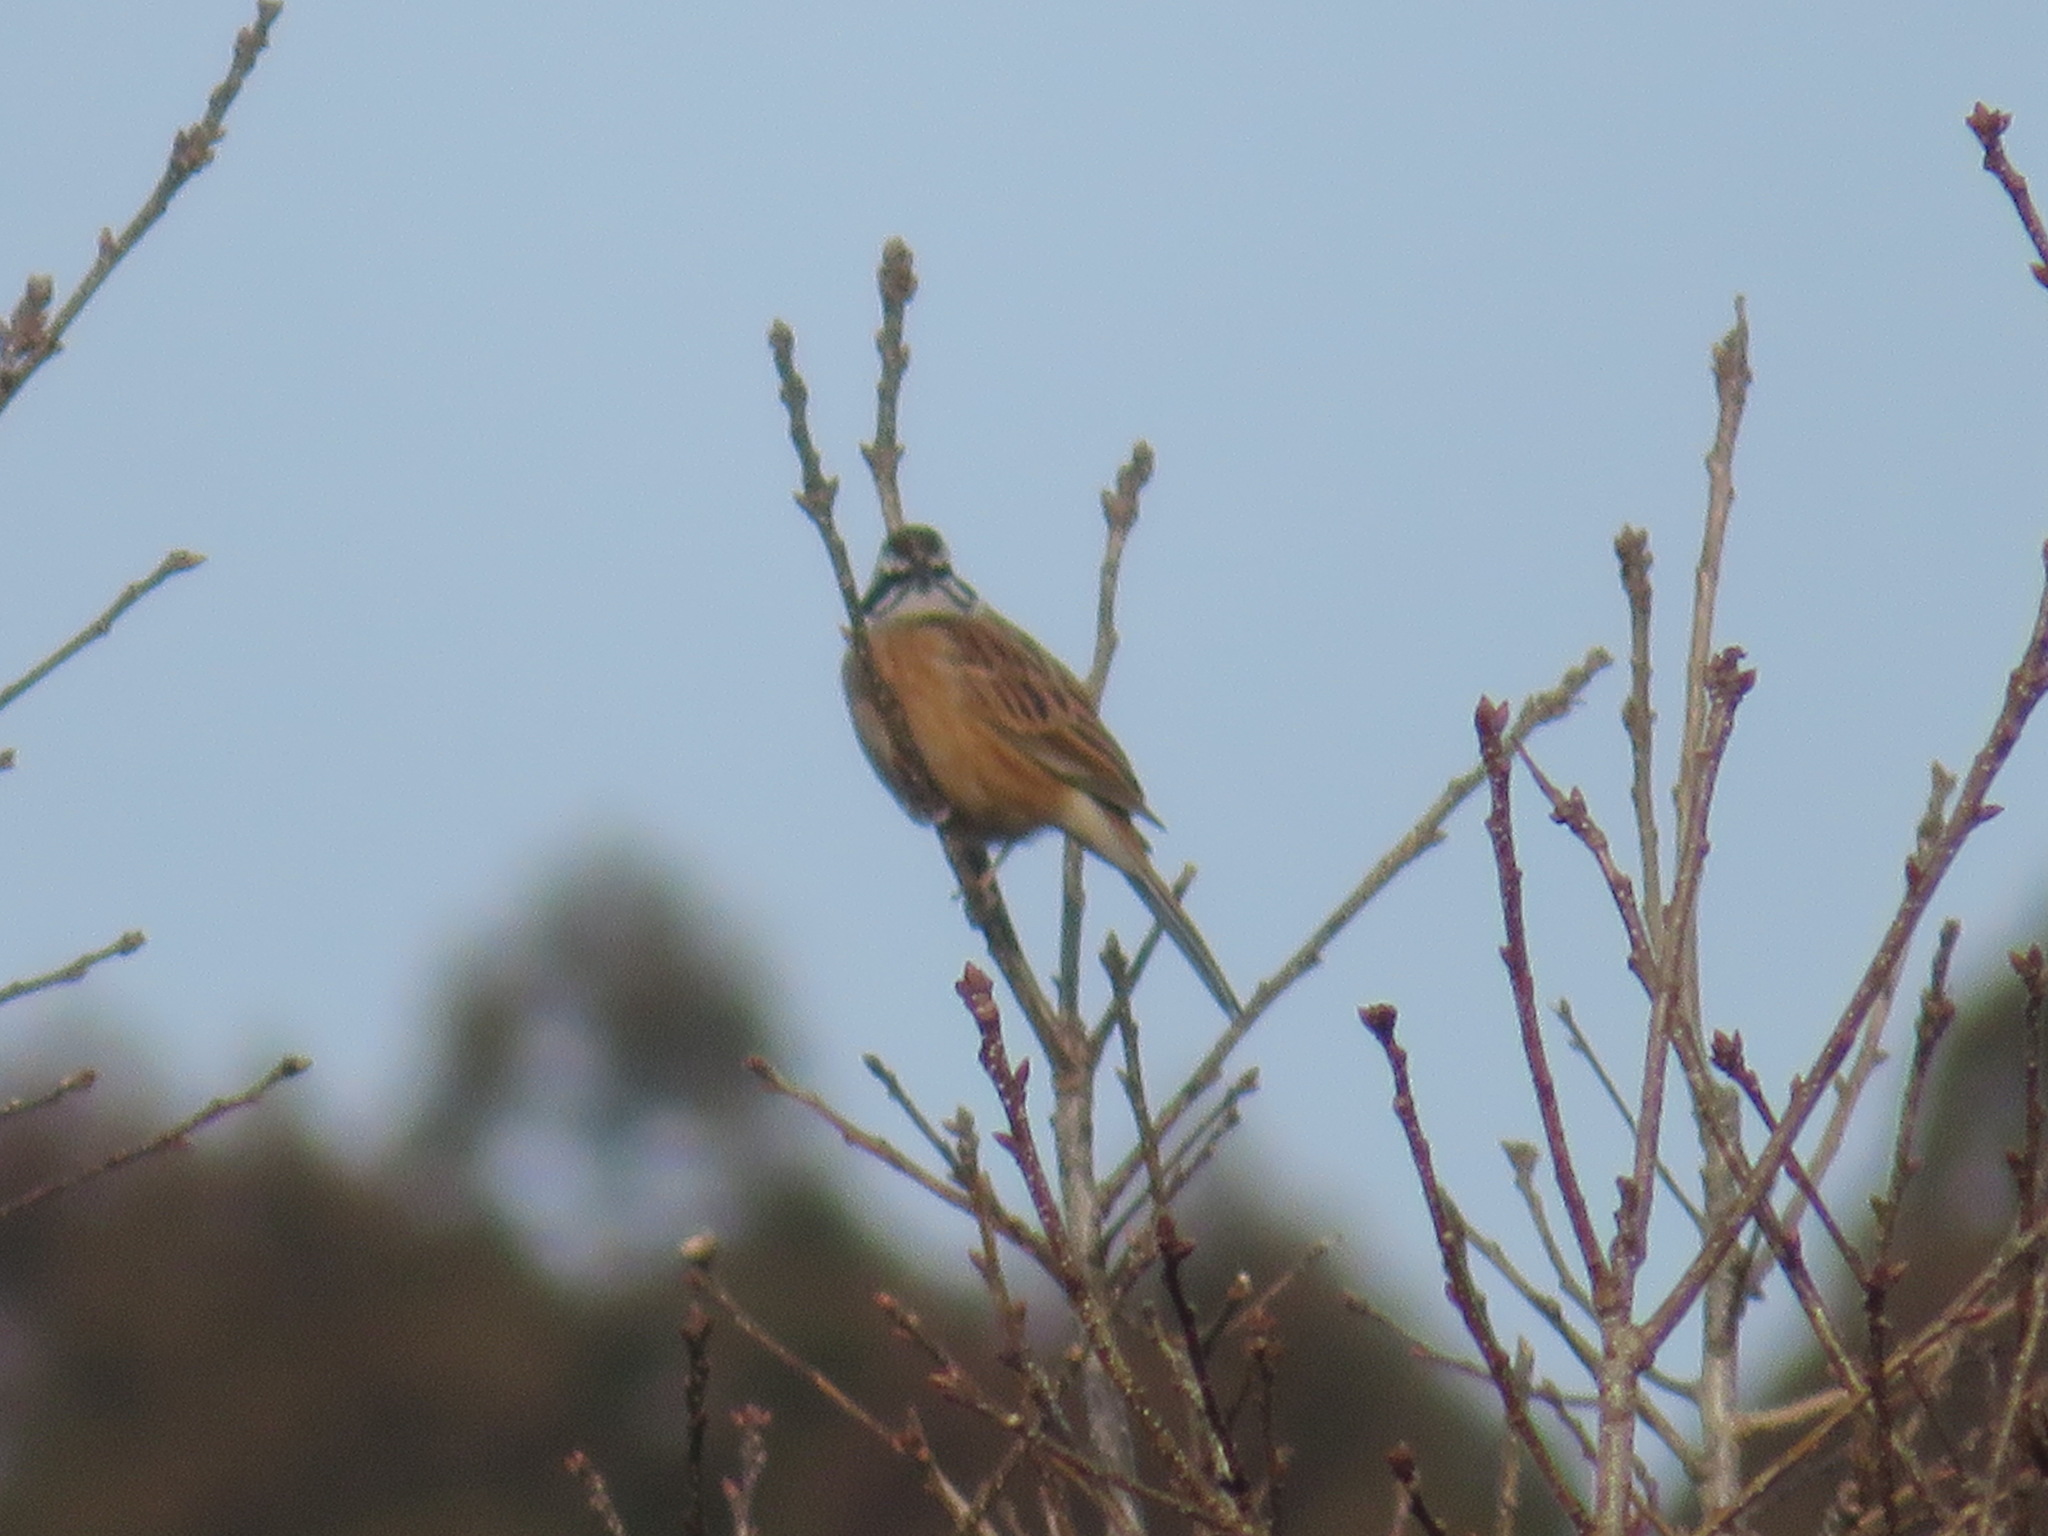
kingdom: Animalia
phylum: Chordata
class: Aves
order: Passeriformes
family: Emberizidae
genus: Emberiza
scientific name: Emberiza cioides
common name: Meadow bunting
